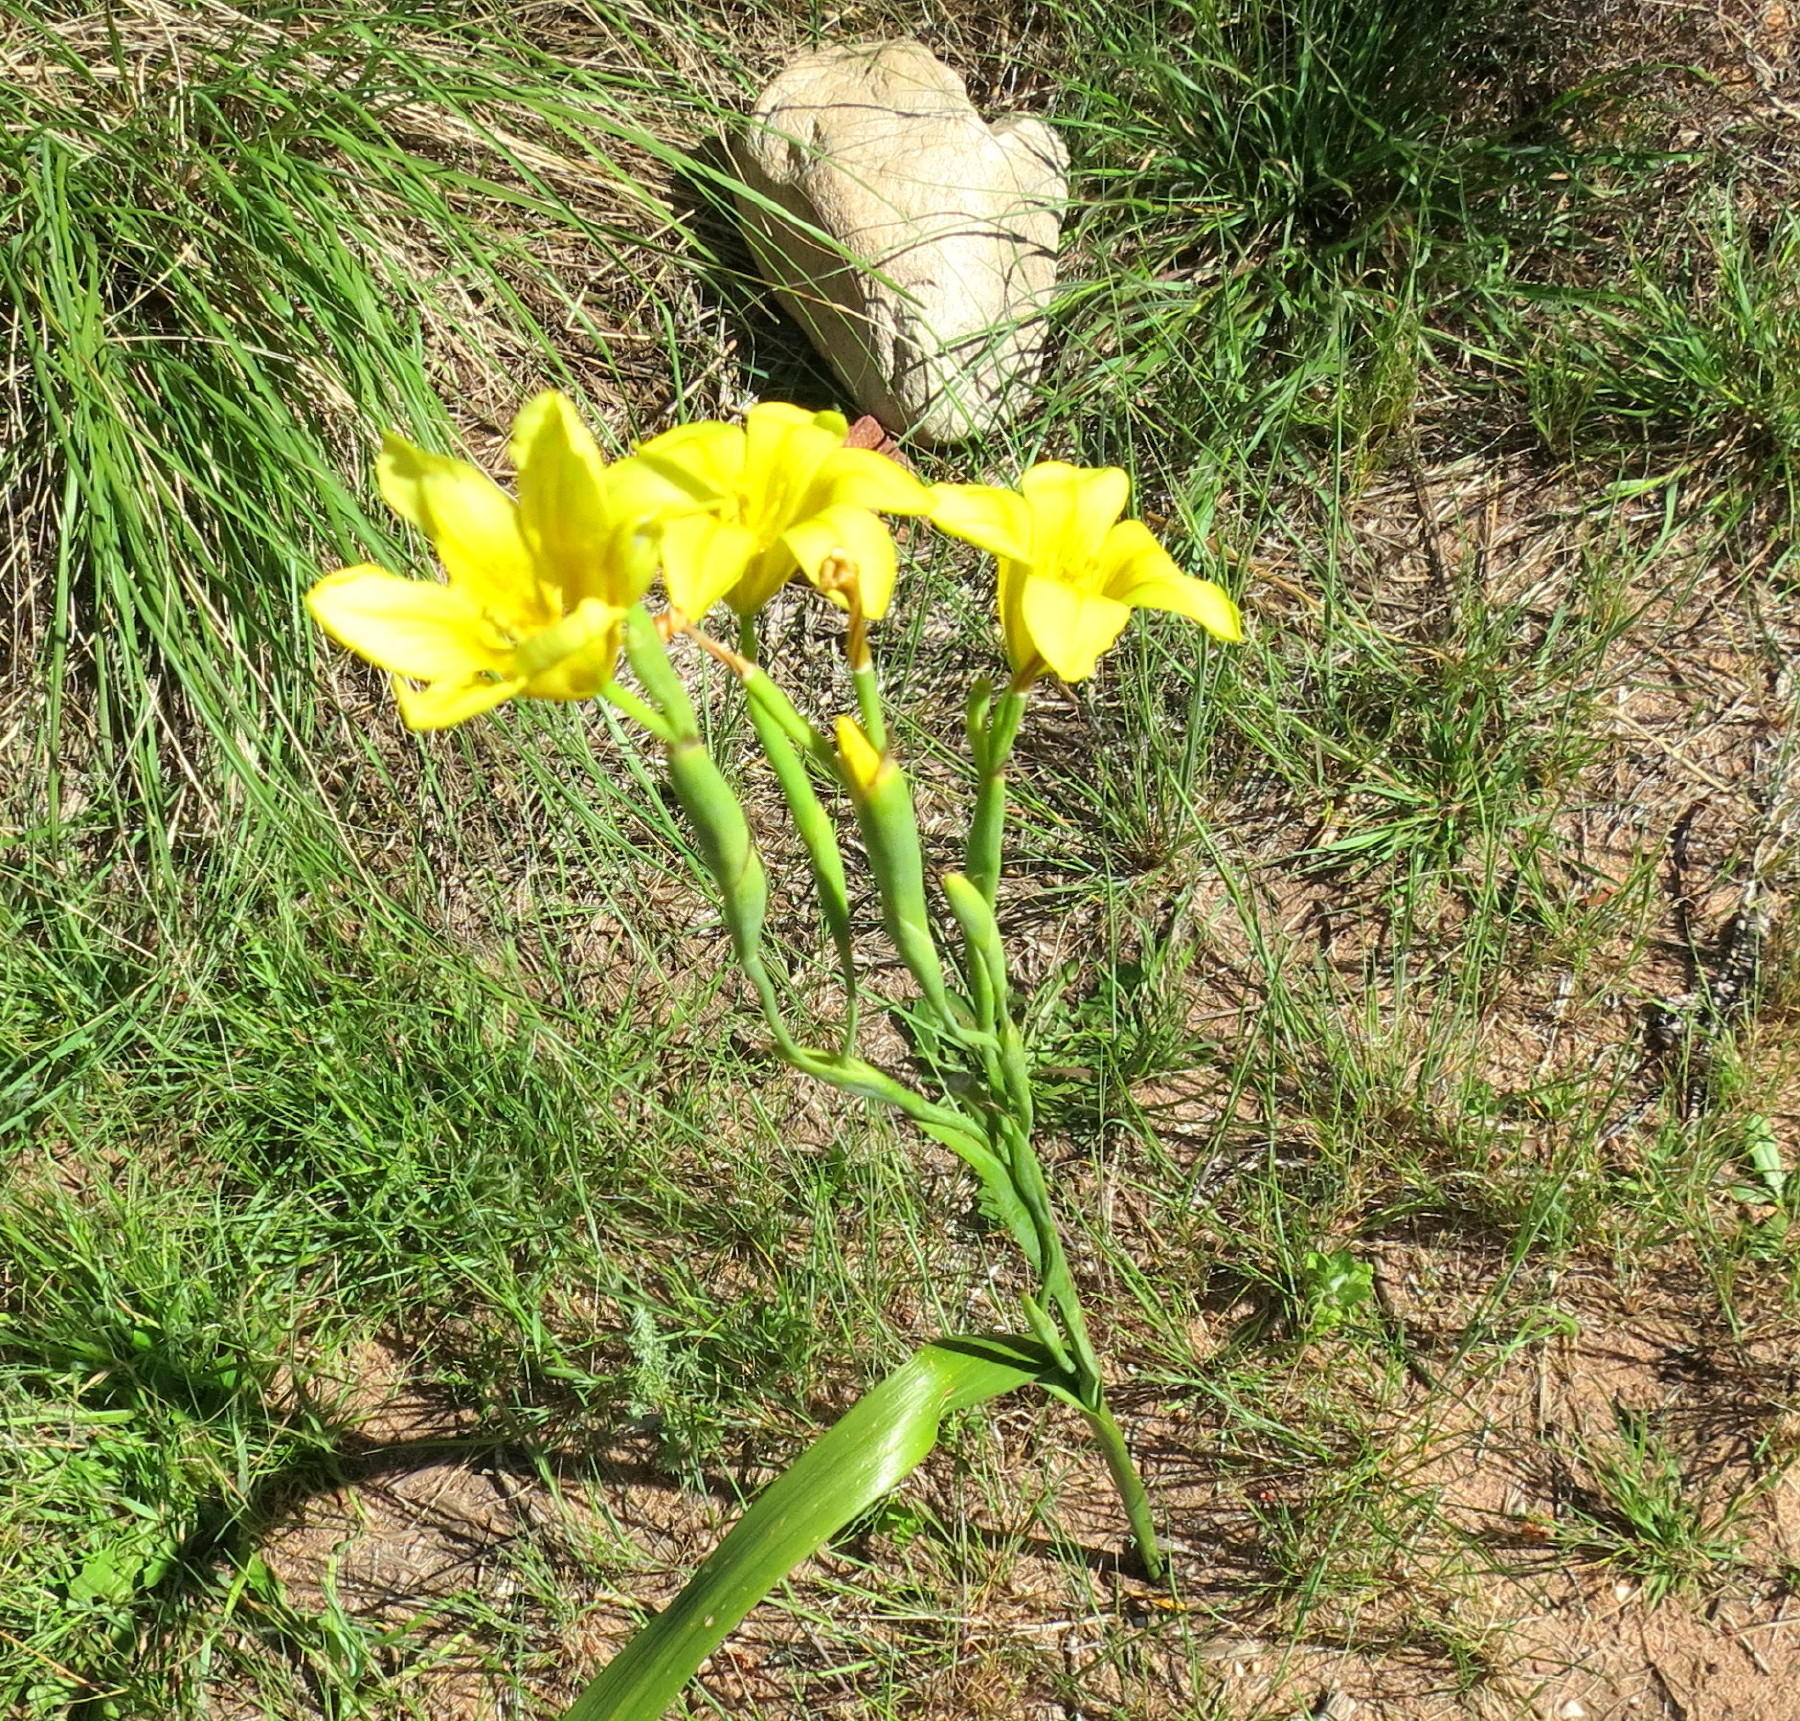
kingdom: Plantae
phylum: Tracheophyta
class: Liliopsida
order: Asparagales
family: Iridaceae
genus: Moraea
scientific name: Moraea ochroleuca
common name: Red tulp
